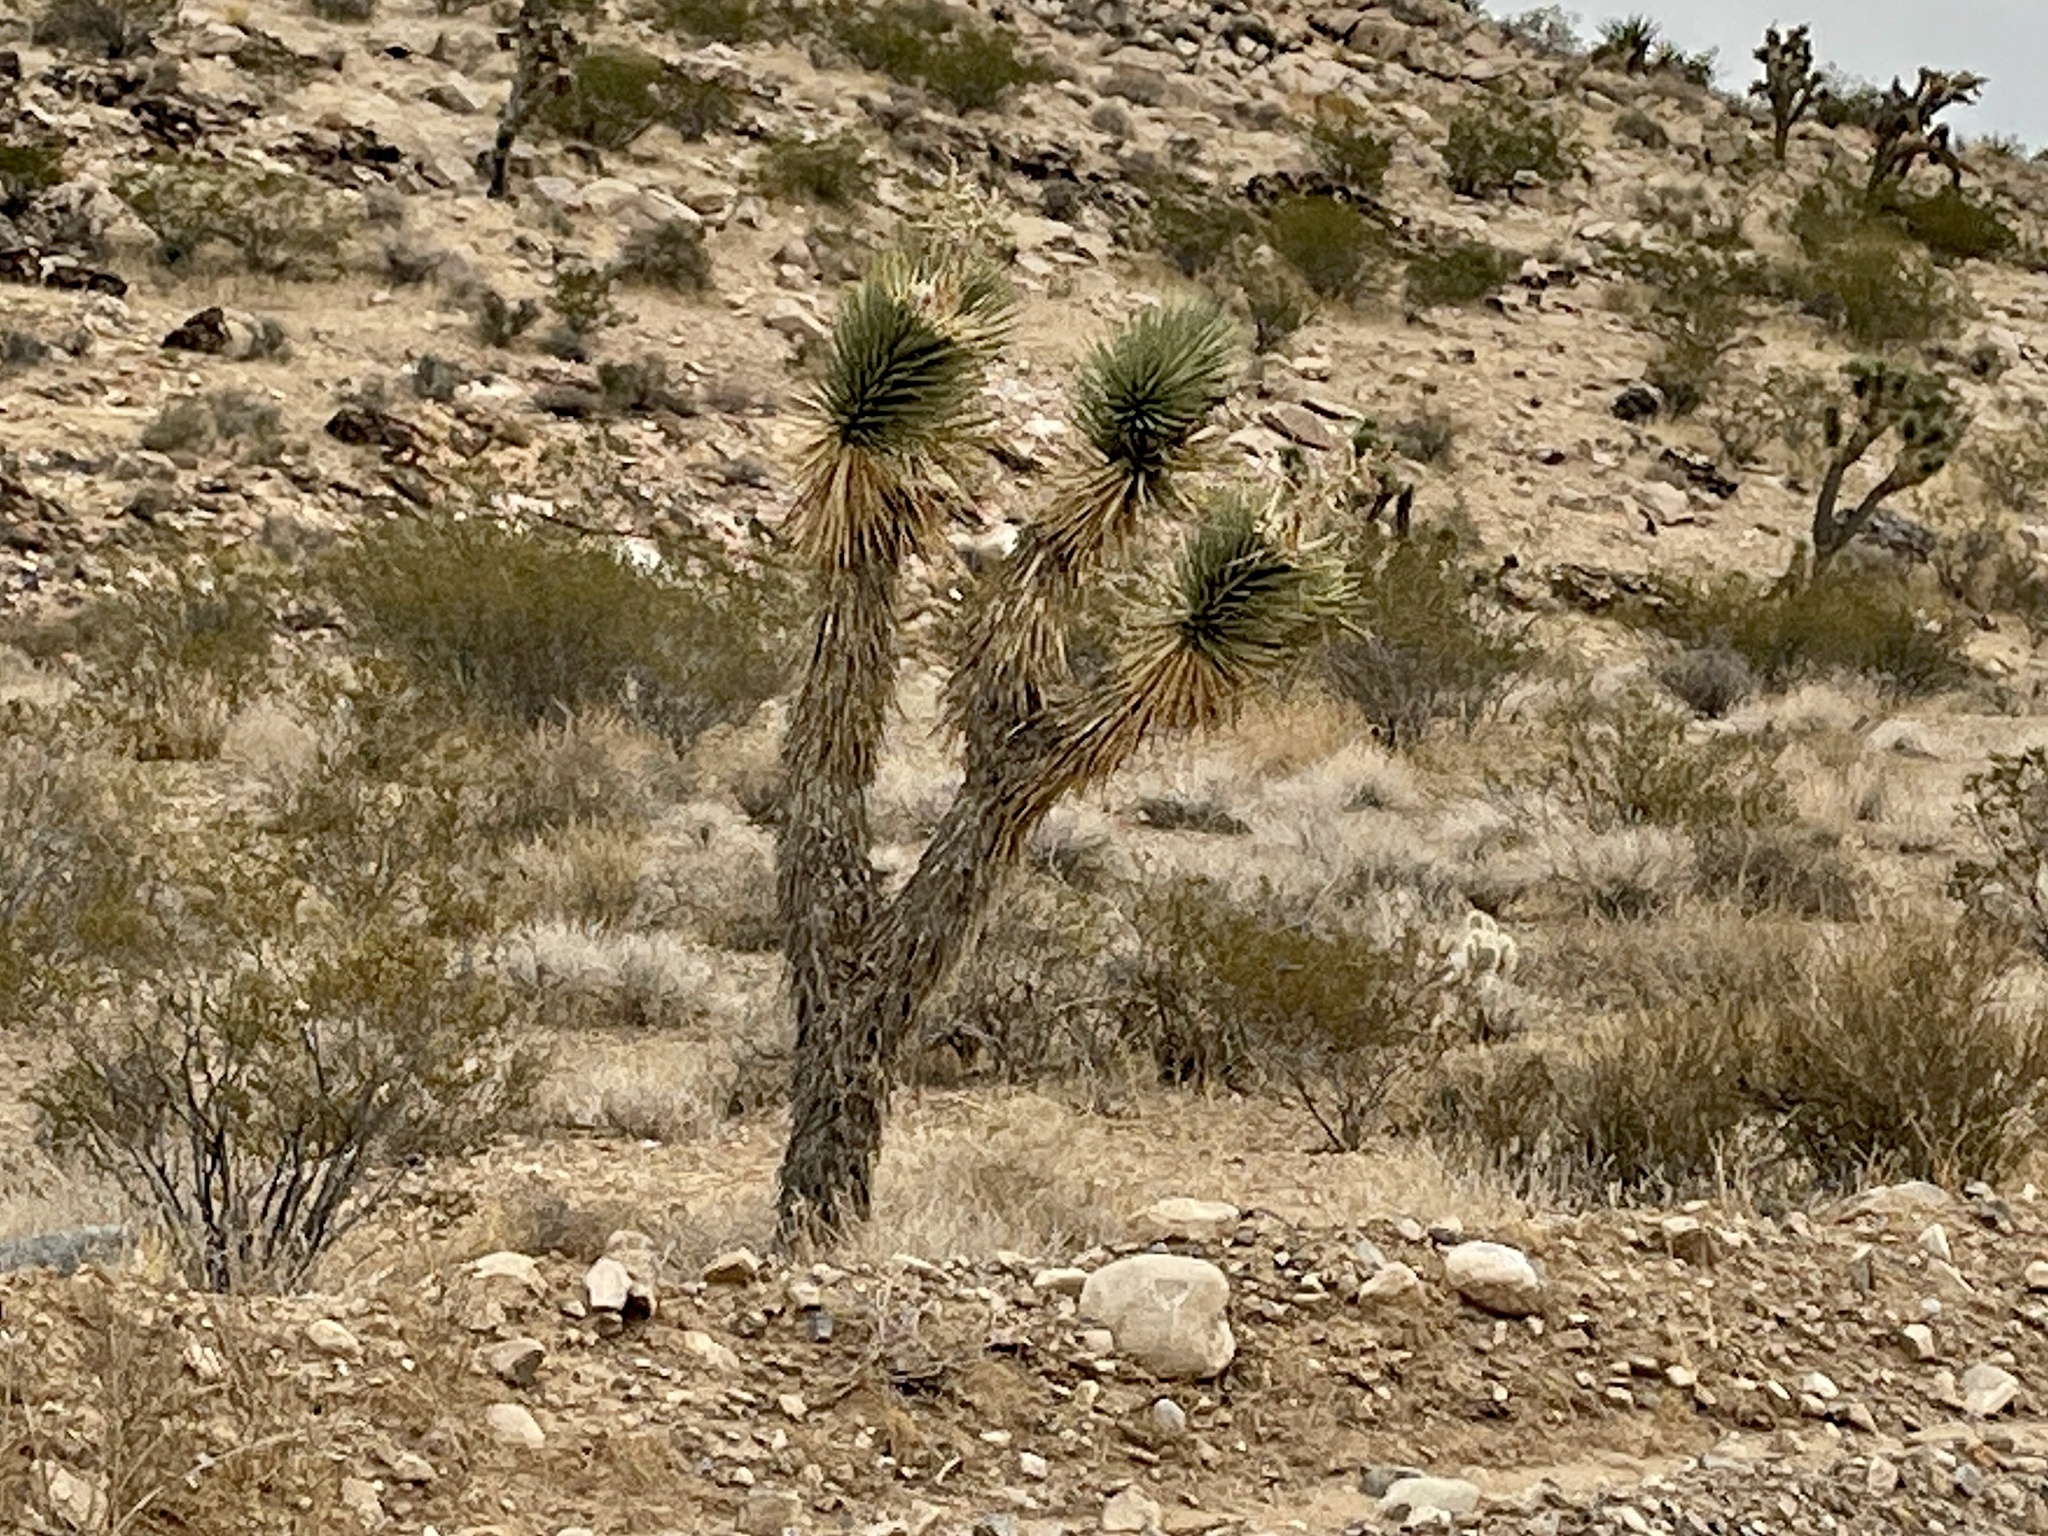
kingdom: Plantae
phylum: Tracheophyta
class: Liliopsida
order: Asparagales
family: Asparagaceae
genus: Yucca
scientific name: Yucca brevifolia
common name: Joshua tree
